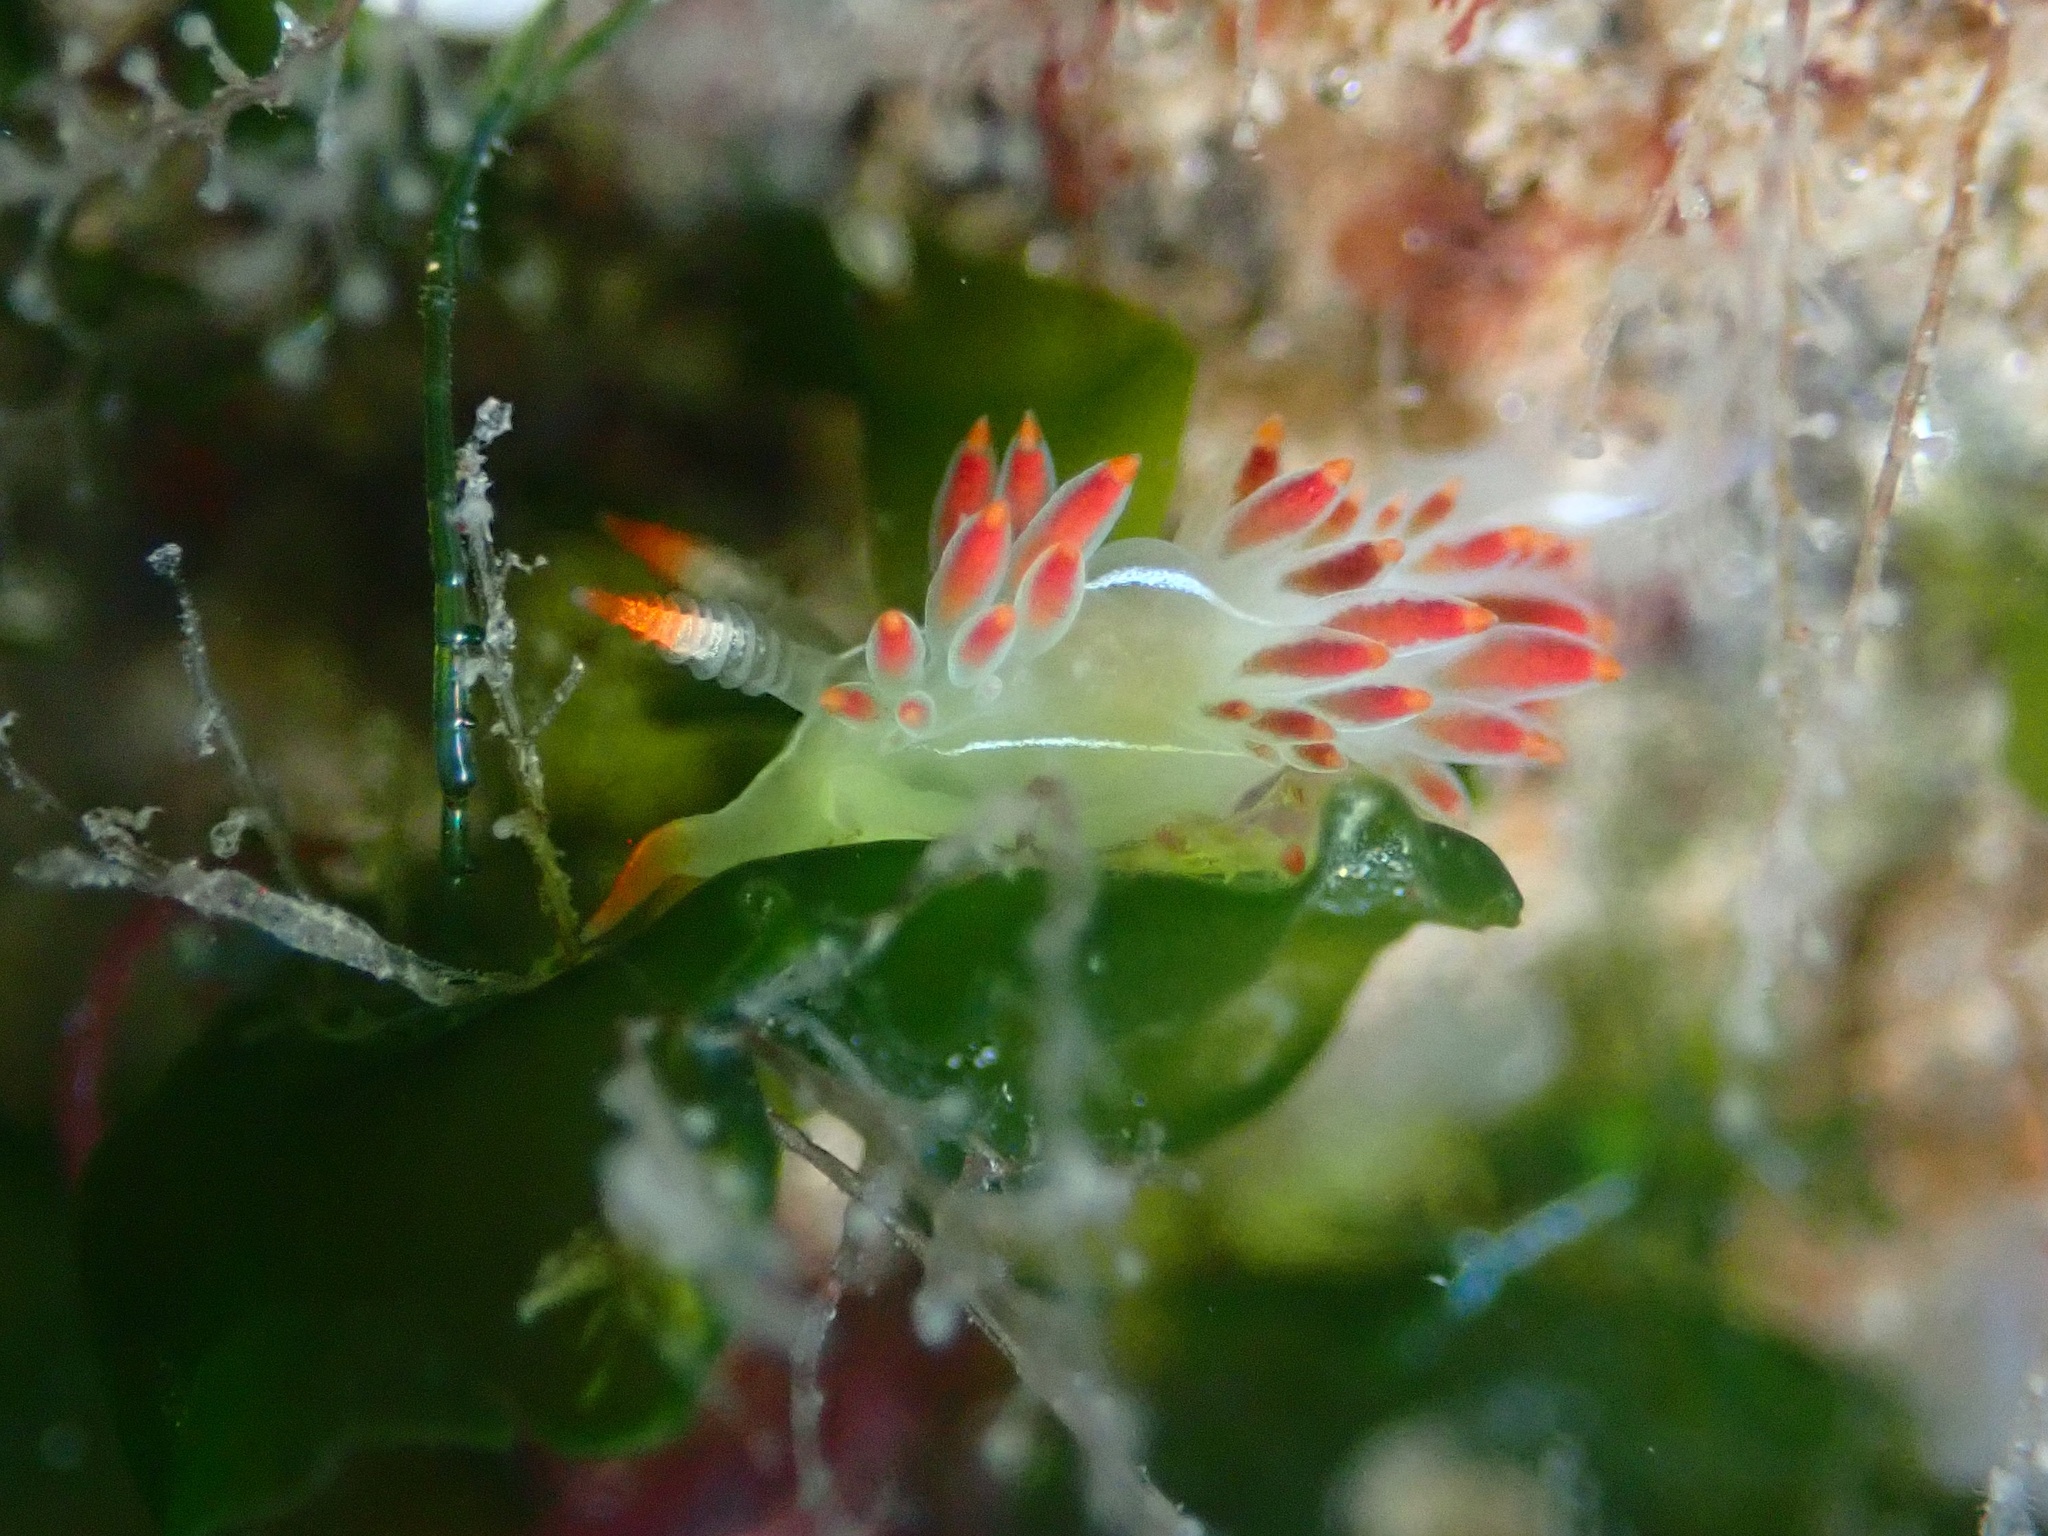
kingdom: Animalia
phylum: Mollusca
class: Gastropoda
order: Nudibranchia
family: Coryphellidae
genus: Coryphella
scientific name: Coryphella trilineata
